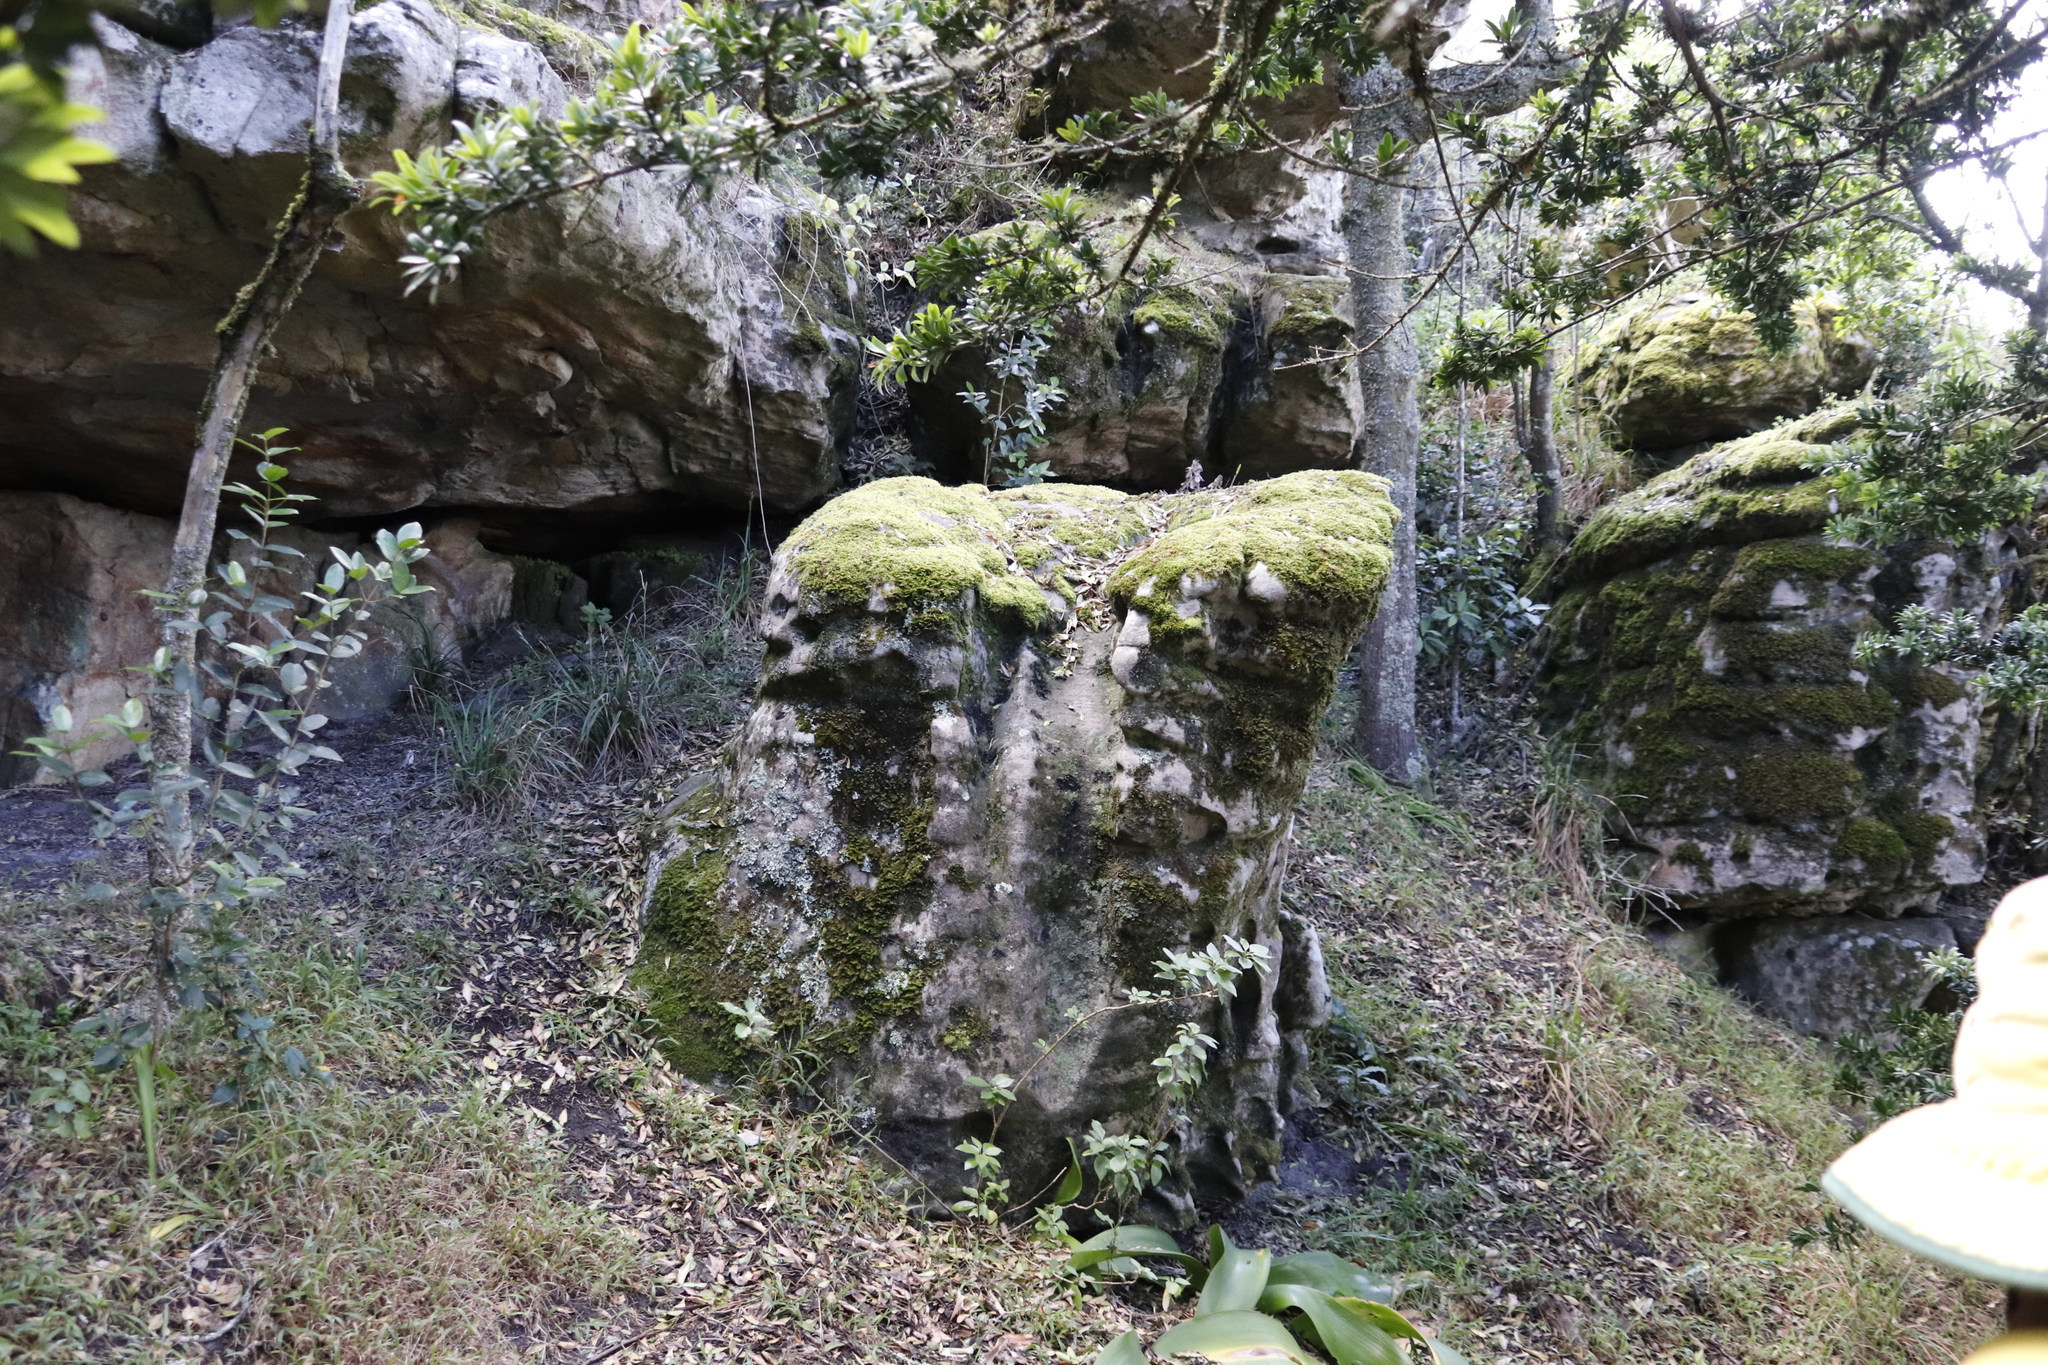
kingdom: Plantae
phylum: Bryophyta
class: Bryopsida
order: Hypnales
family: Neckeraceae
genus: Leptodon
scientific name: Leptodon smithii
